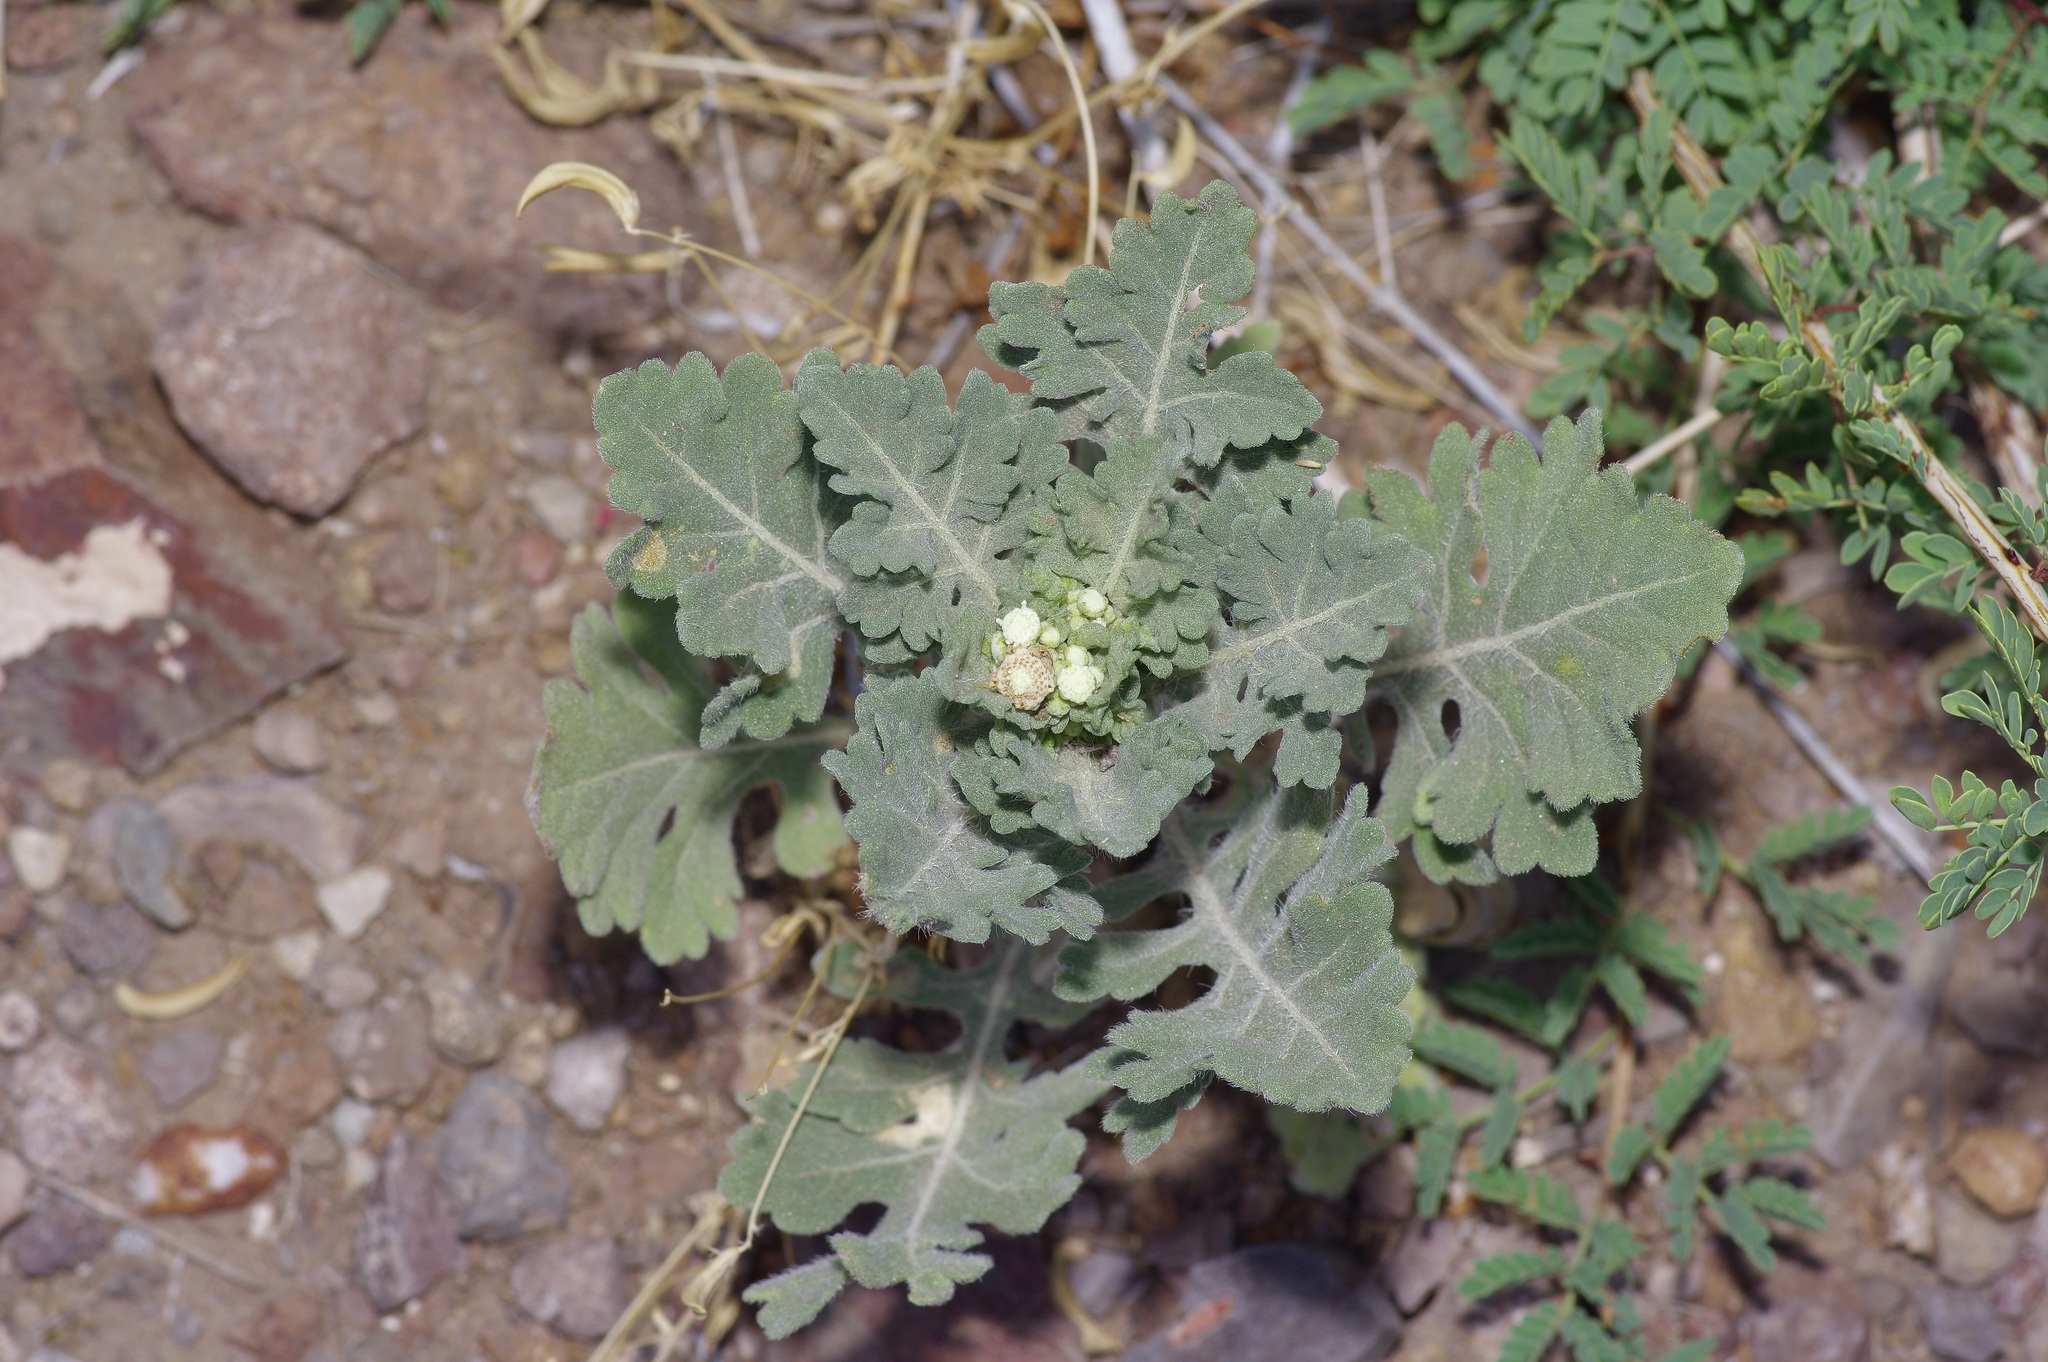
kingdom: Plantae
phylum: Tracheophyta
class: Magnoliopsida
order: Asterales
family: Asteraceae
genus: Parthenium
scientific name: Parthenium confertum
